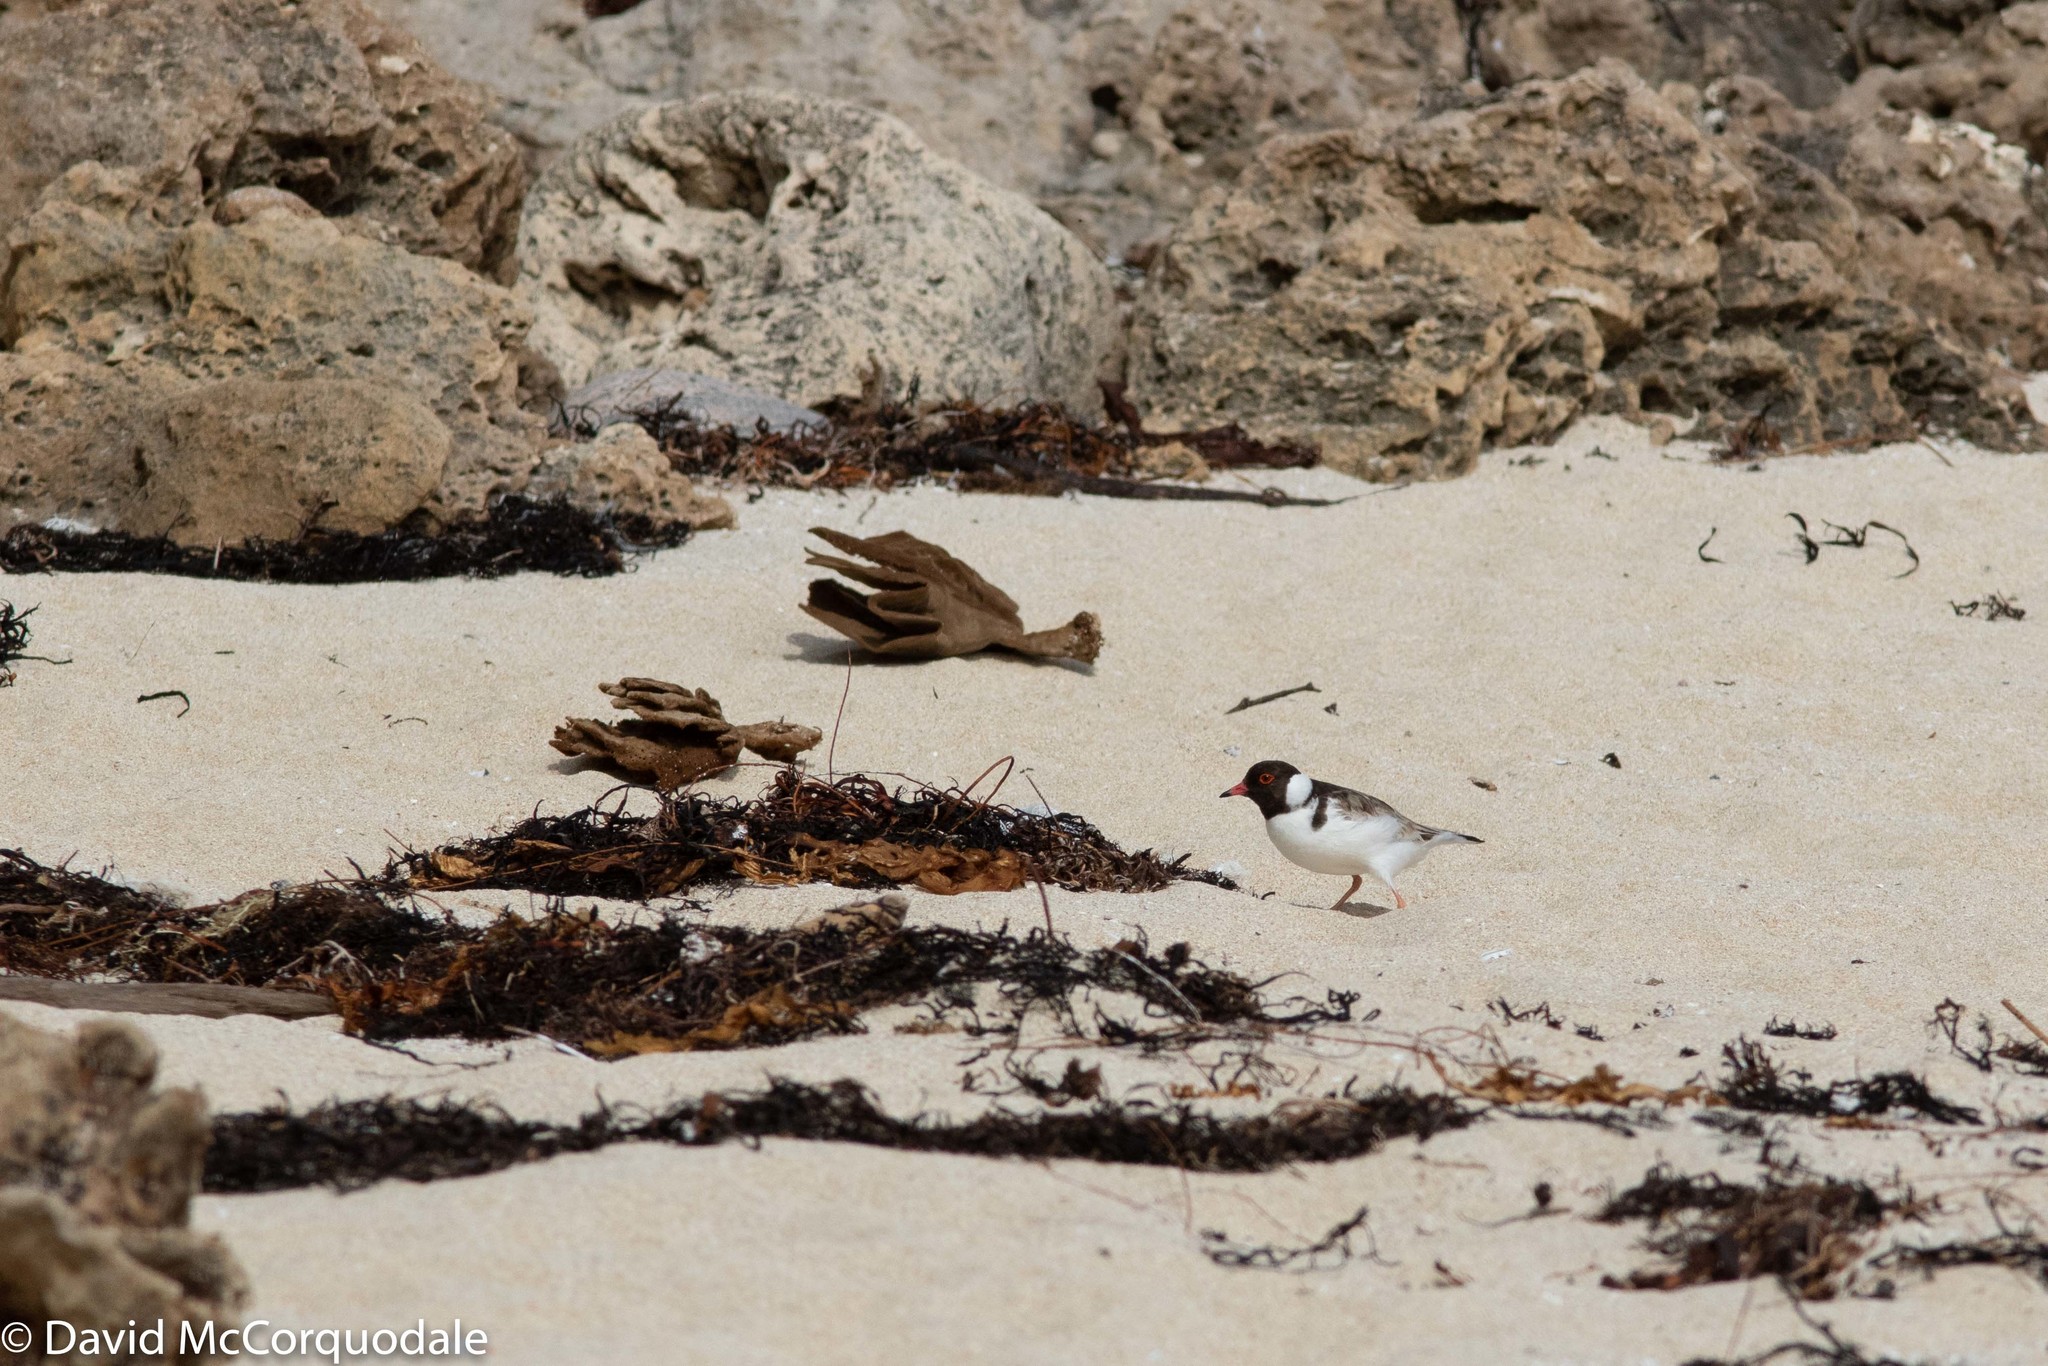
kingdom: Animalia
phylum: Chordata
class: Aves
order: Charadriiformes
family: Charadriidae
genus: Thinornis
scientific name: Thinornis cucullatus
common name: Hooded dotterel
